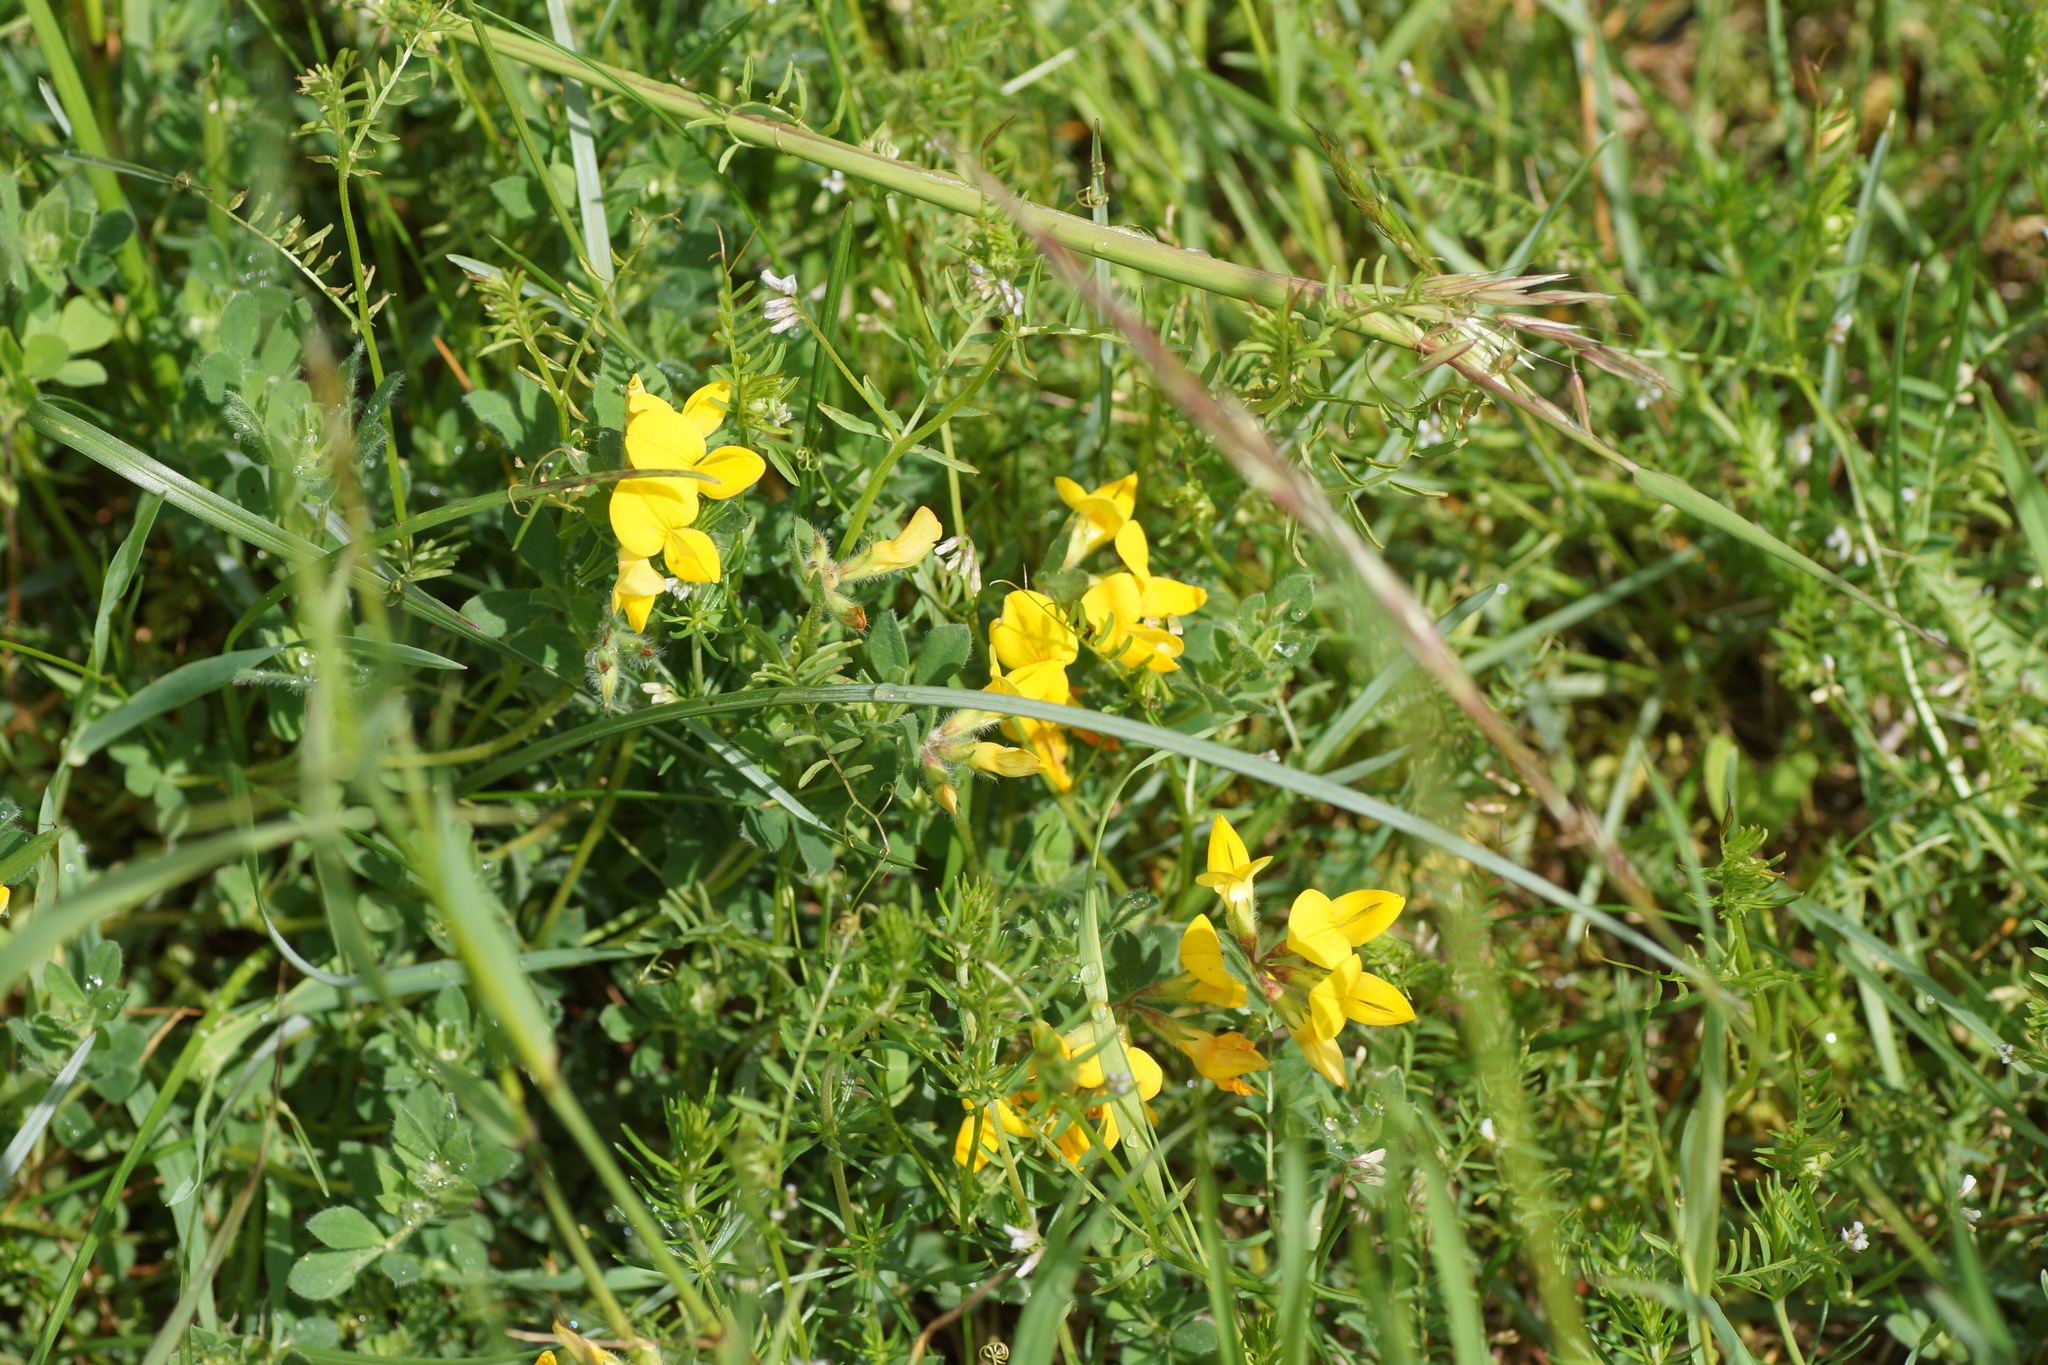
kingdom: Plantae
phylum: Tracheophyta
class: Magnoliopsida
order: Fabales
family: Fabaceae
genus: Lotus
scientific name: Lotus corniculatus
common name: Common bird's-foot-trefoil
